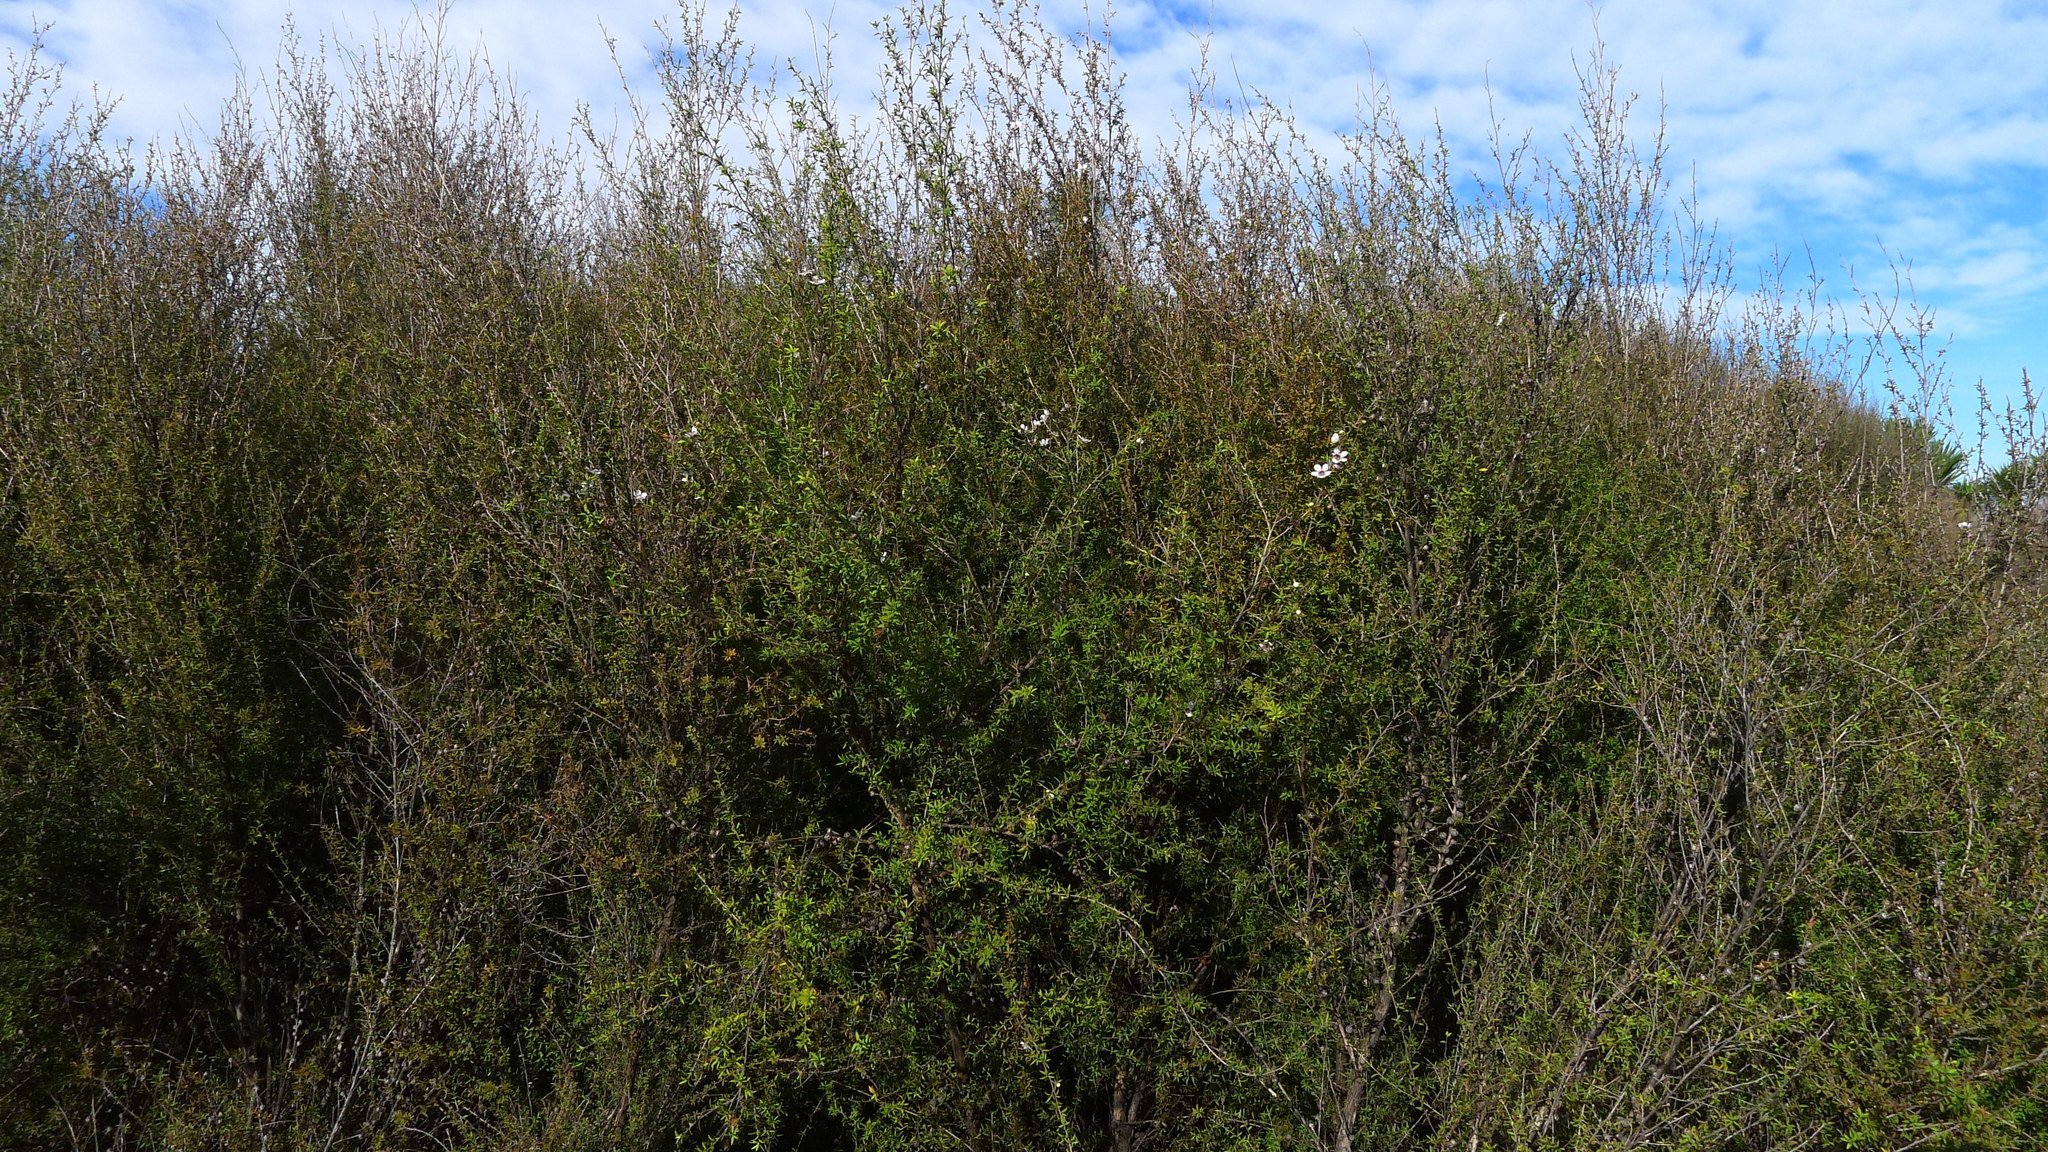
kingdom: Plantae
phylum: Tracheophyta
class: Magnoliopsida
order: Myrtales
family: Myrtaceae
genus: Leptospermum
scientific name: Leptospermum scoparium
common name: Broom tea-tree
